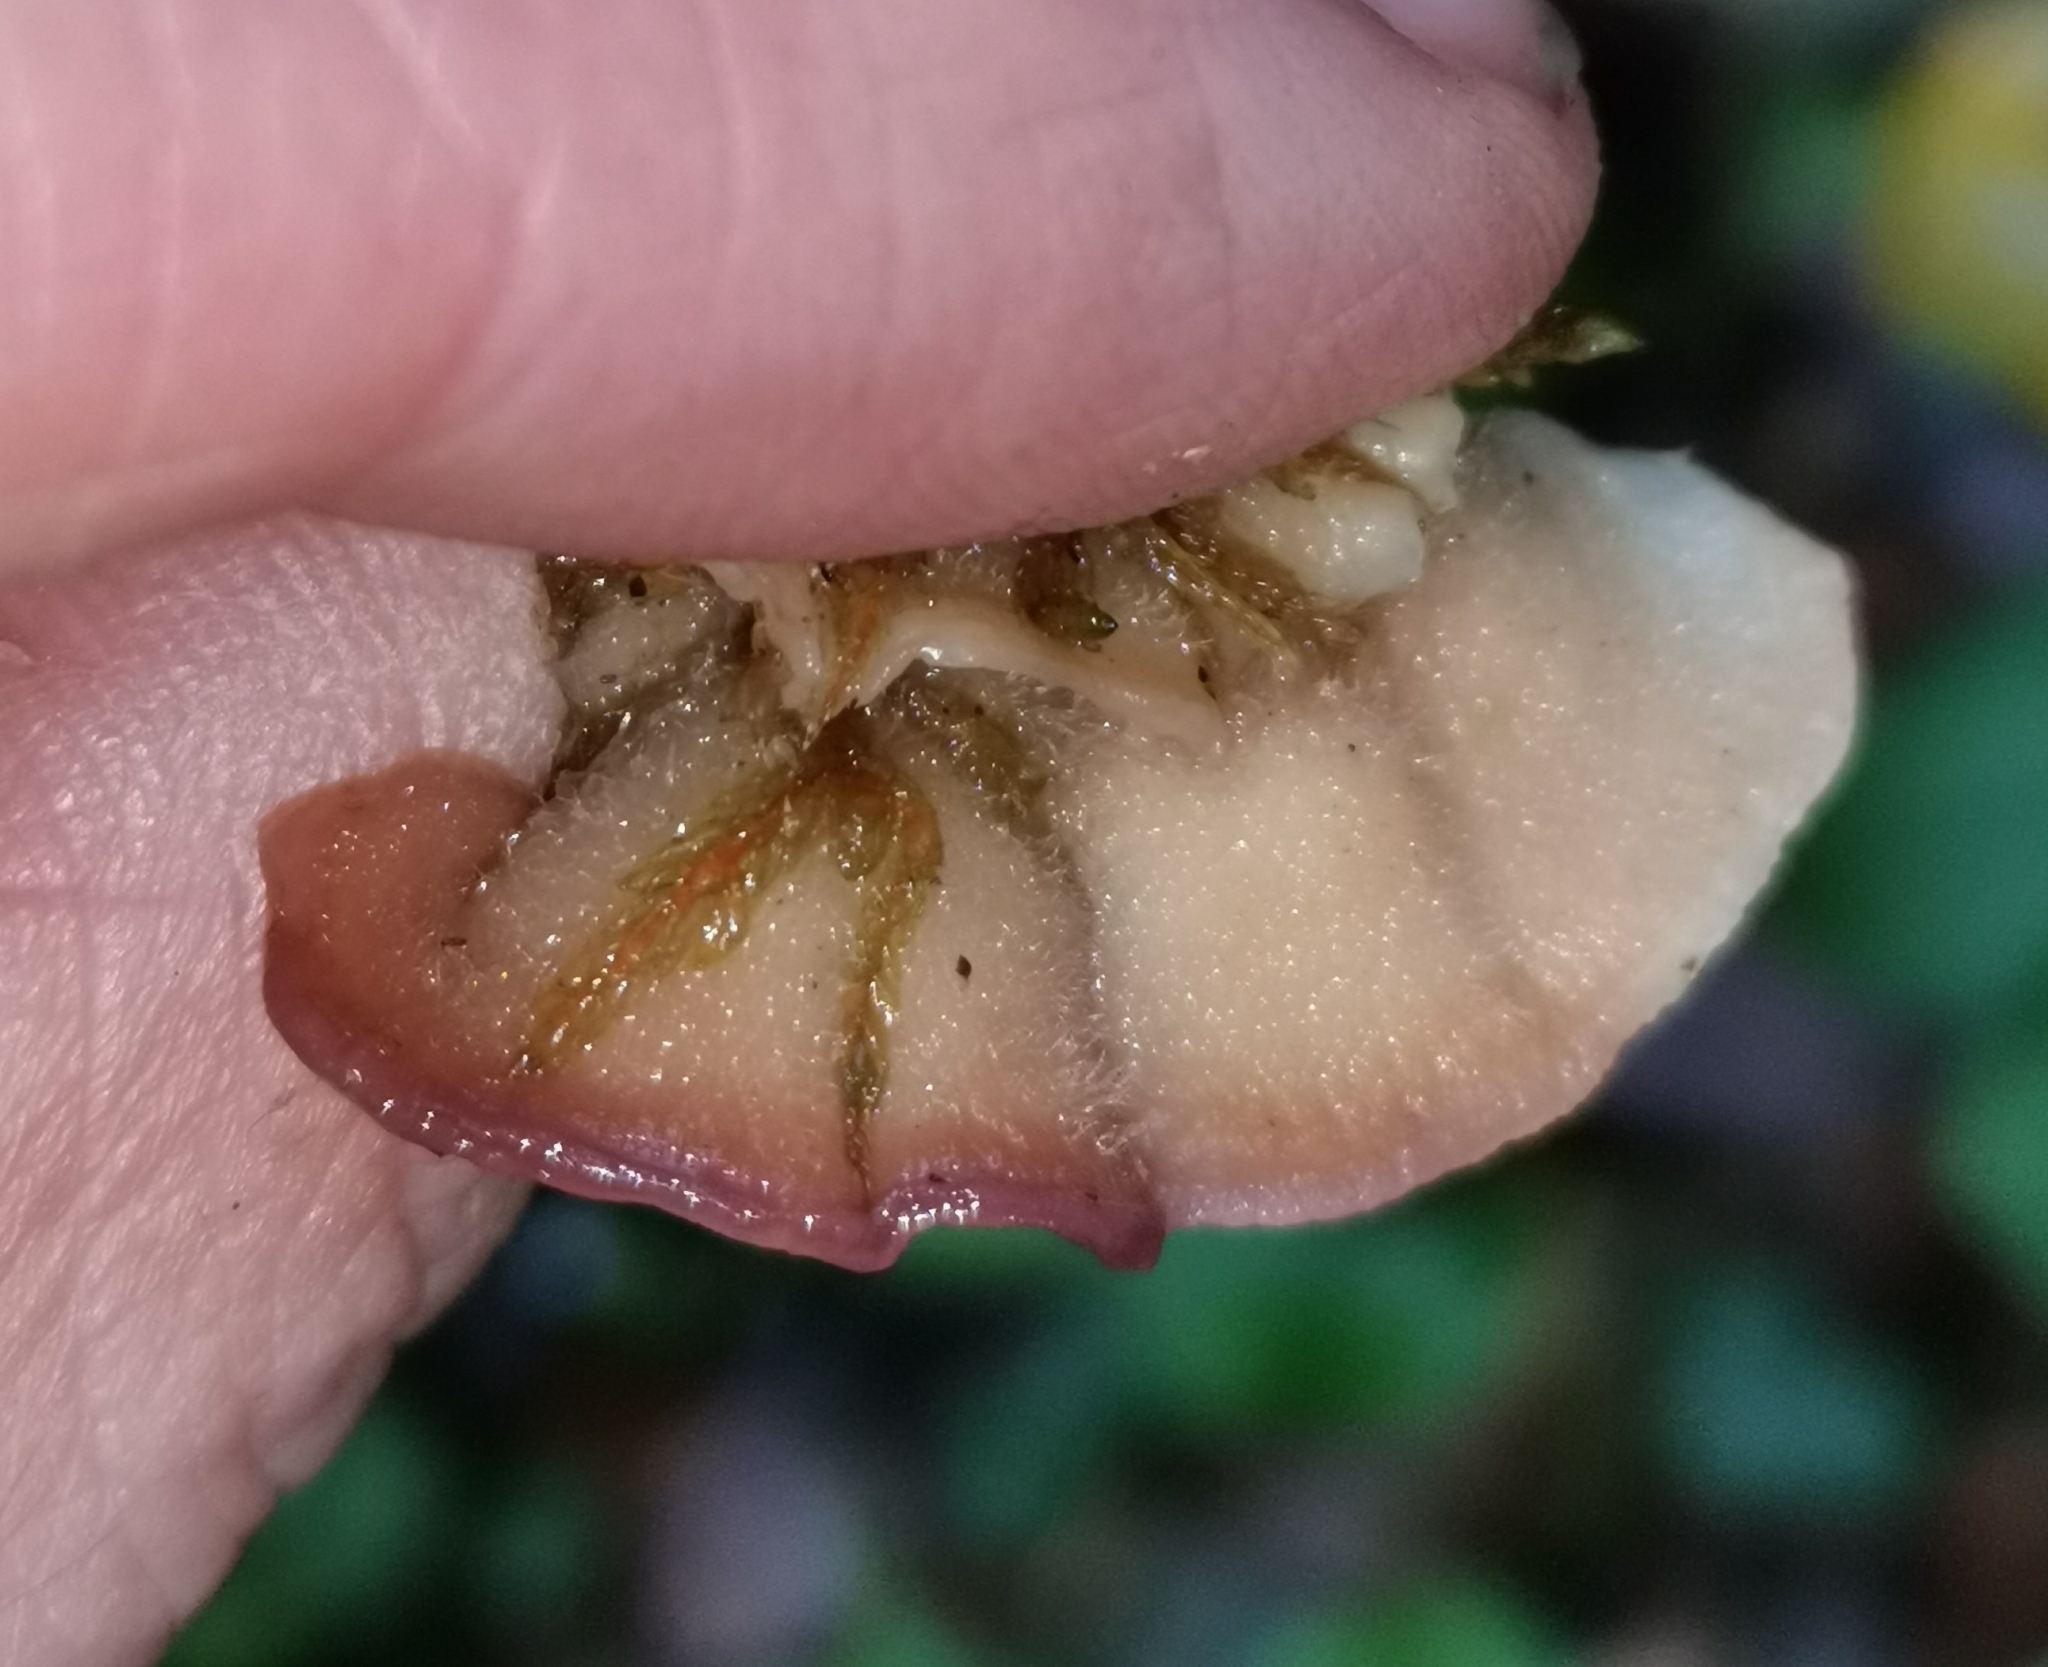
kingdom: Fungi
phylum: Basidiomycota
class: Agaricomycetes
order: Polyporales
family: Meruliaceae
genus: Phlebia
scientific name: Phlebia tremellosa
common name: Jelly rot
